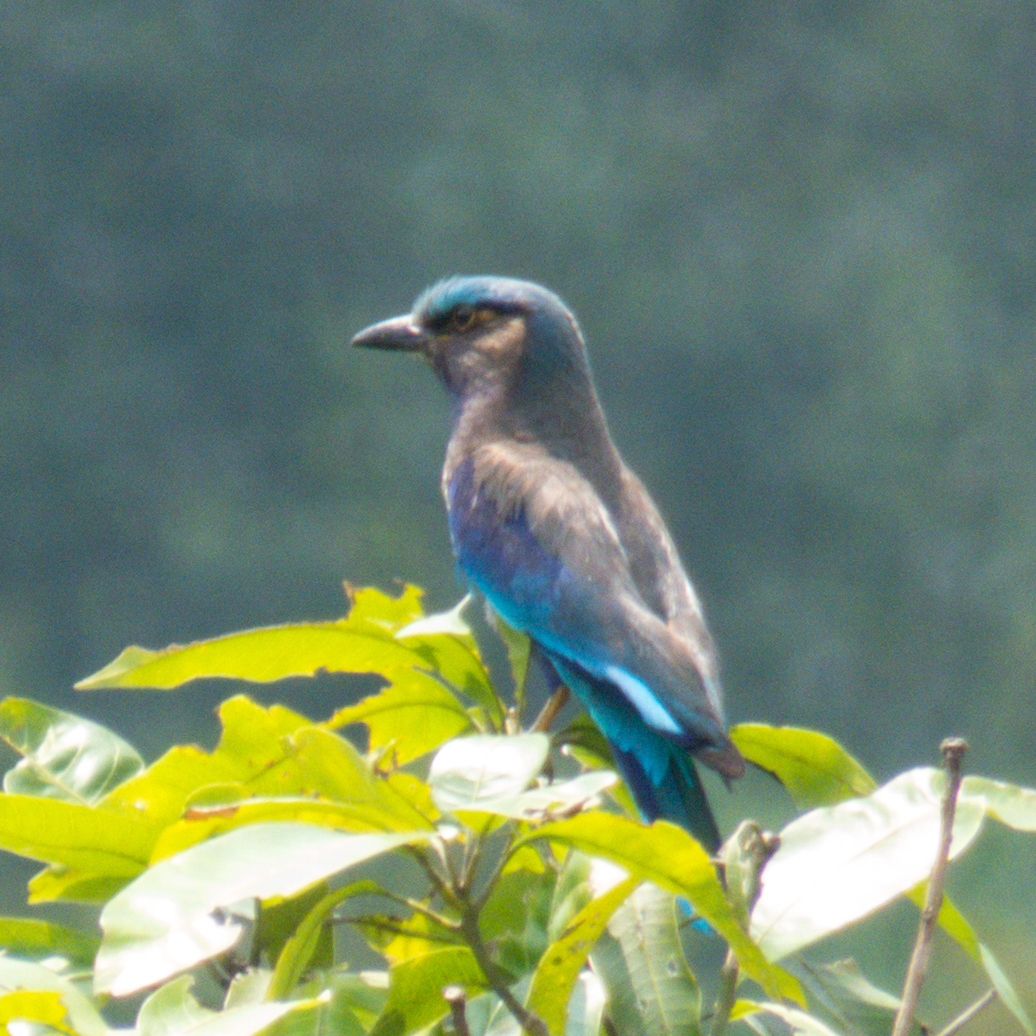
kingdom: Animalia
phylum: Chordata
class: Aves
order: Coraciiformes
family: Coraciidae
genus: Coracias
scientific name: Coracias affinis
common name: Indochinese roller
